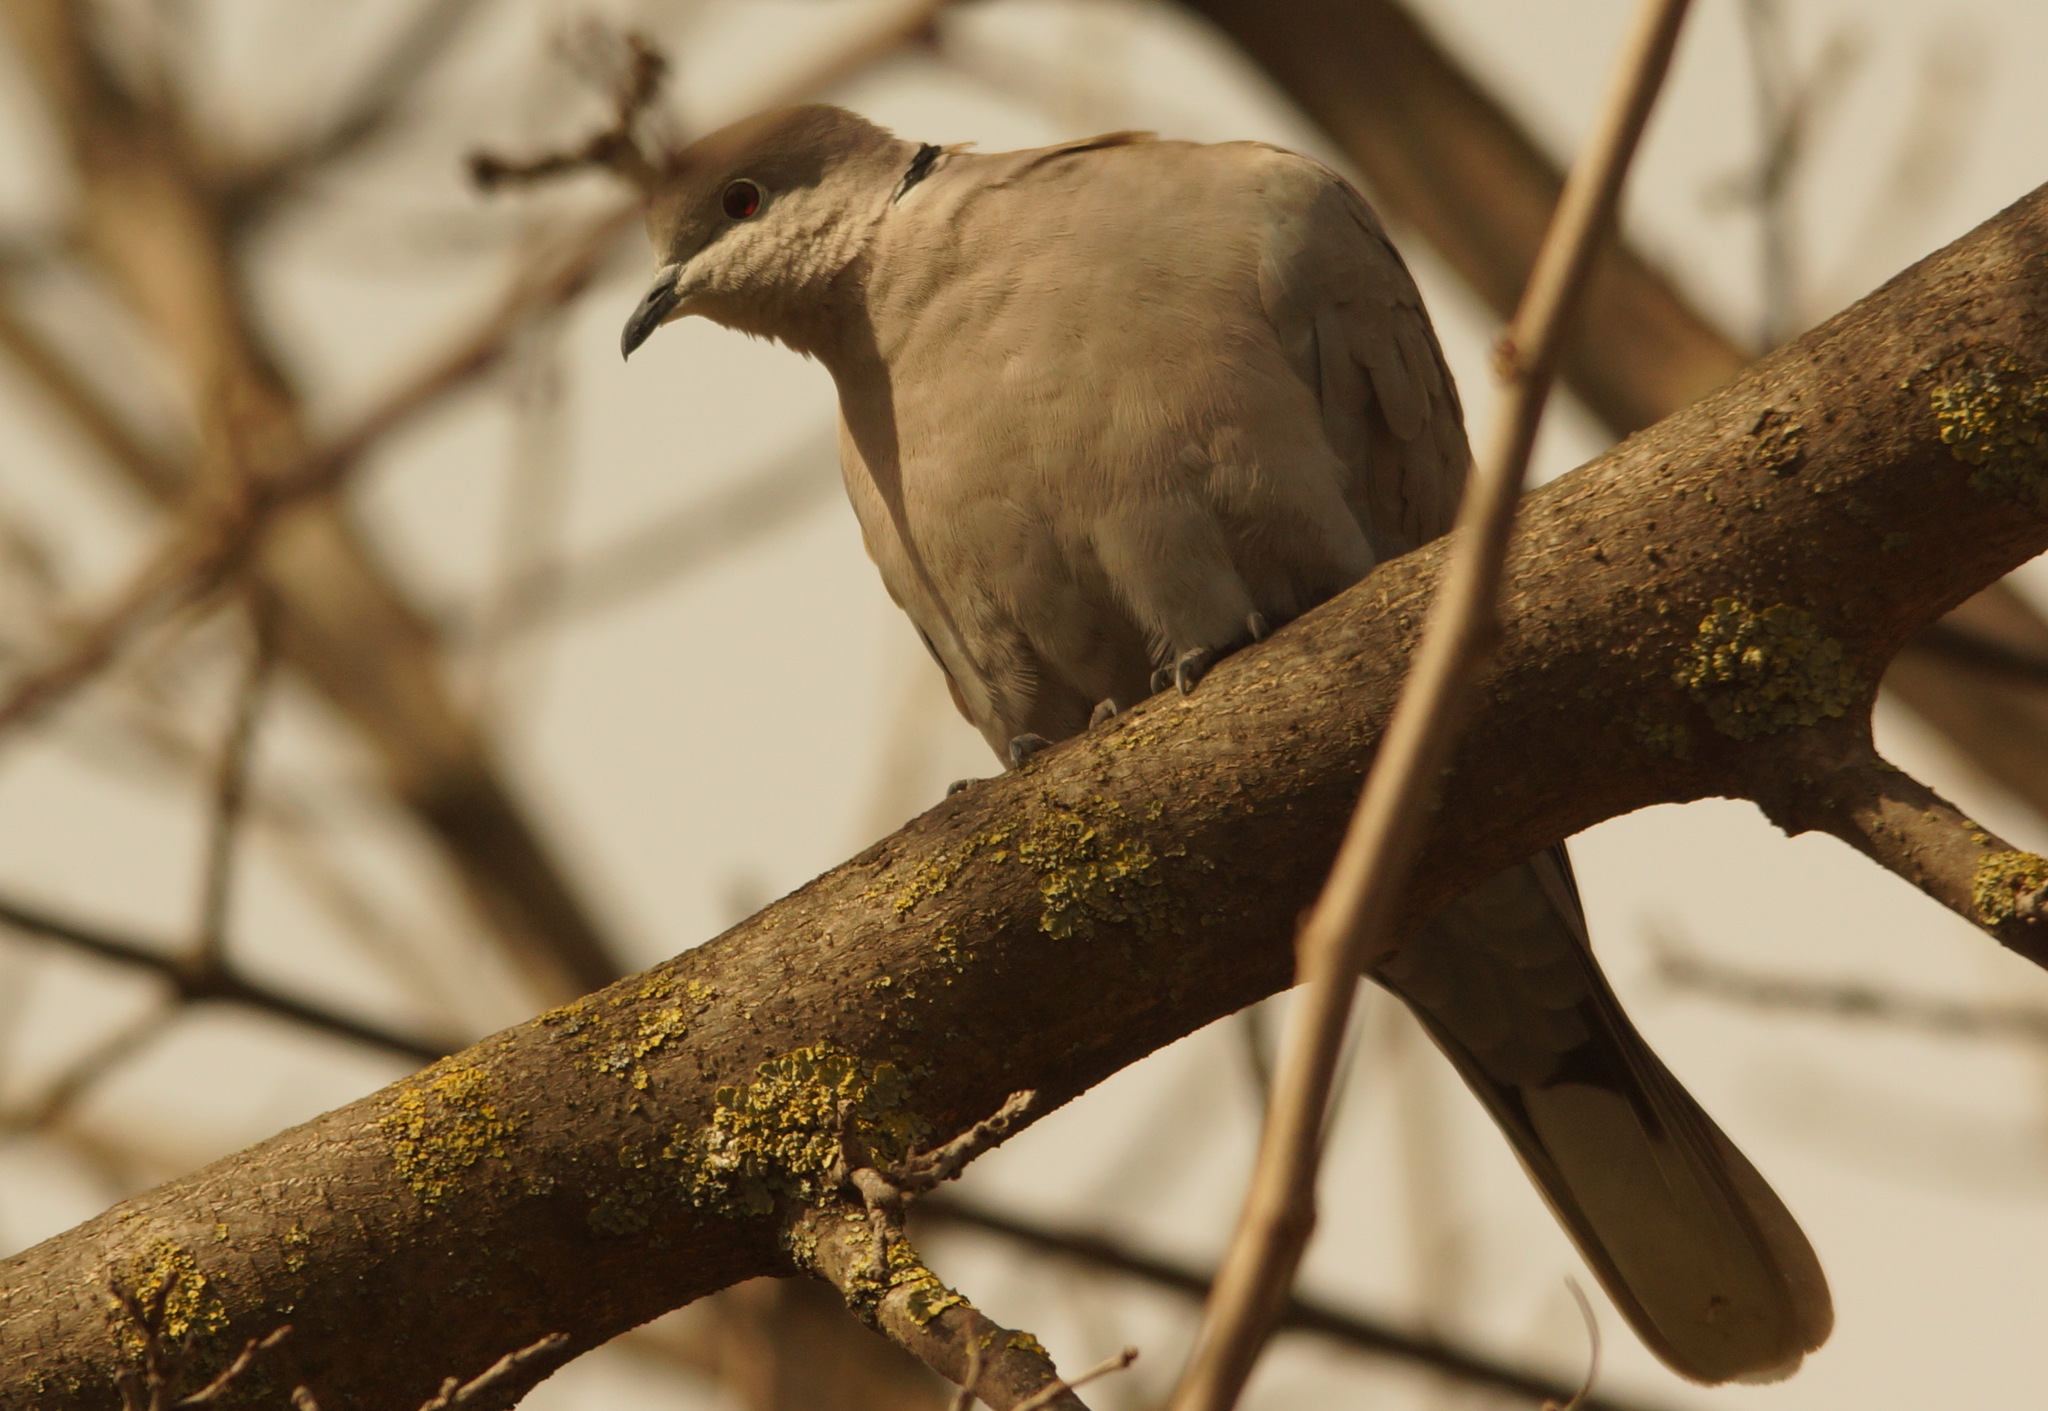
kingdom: Animalia
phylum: Chordata
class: Aves
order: Columbiformes
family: Columbidae
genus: Streptopelia
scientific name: Streptopelia decaocto
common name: Eurasian collared dove
